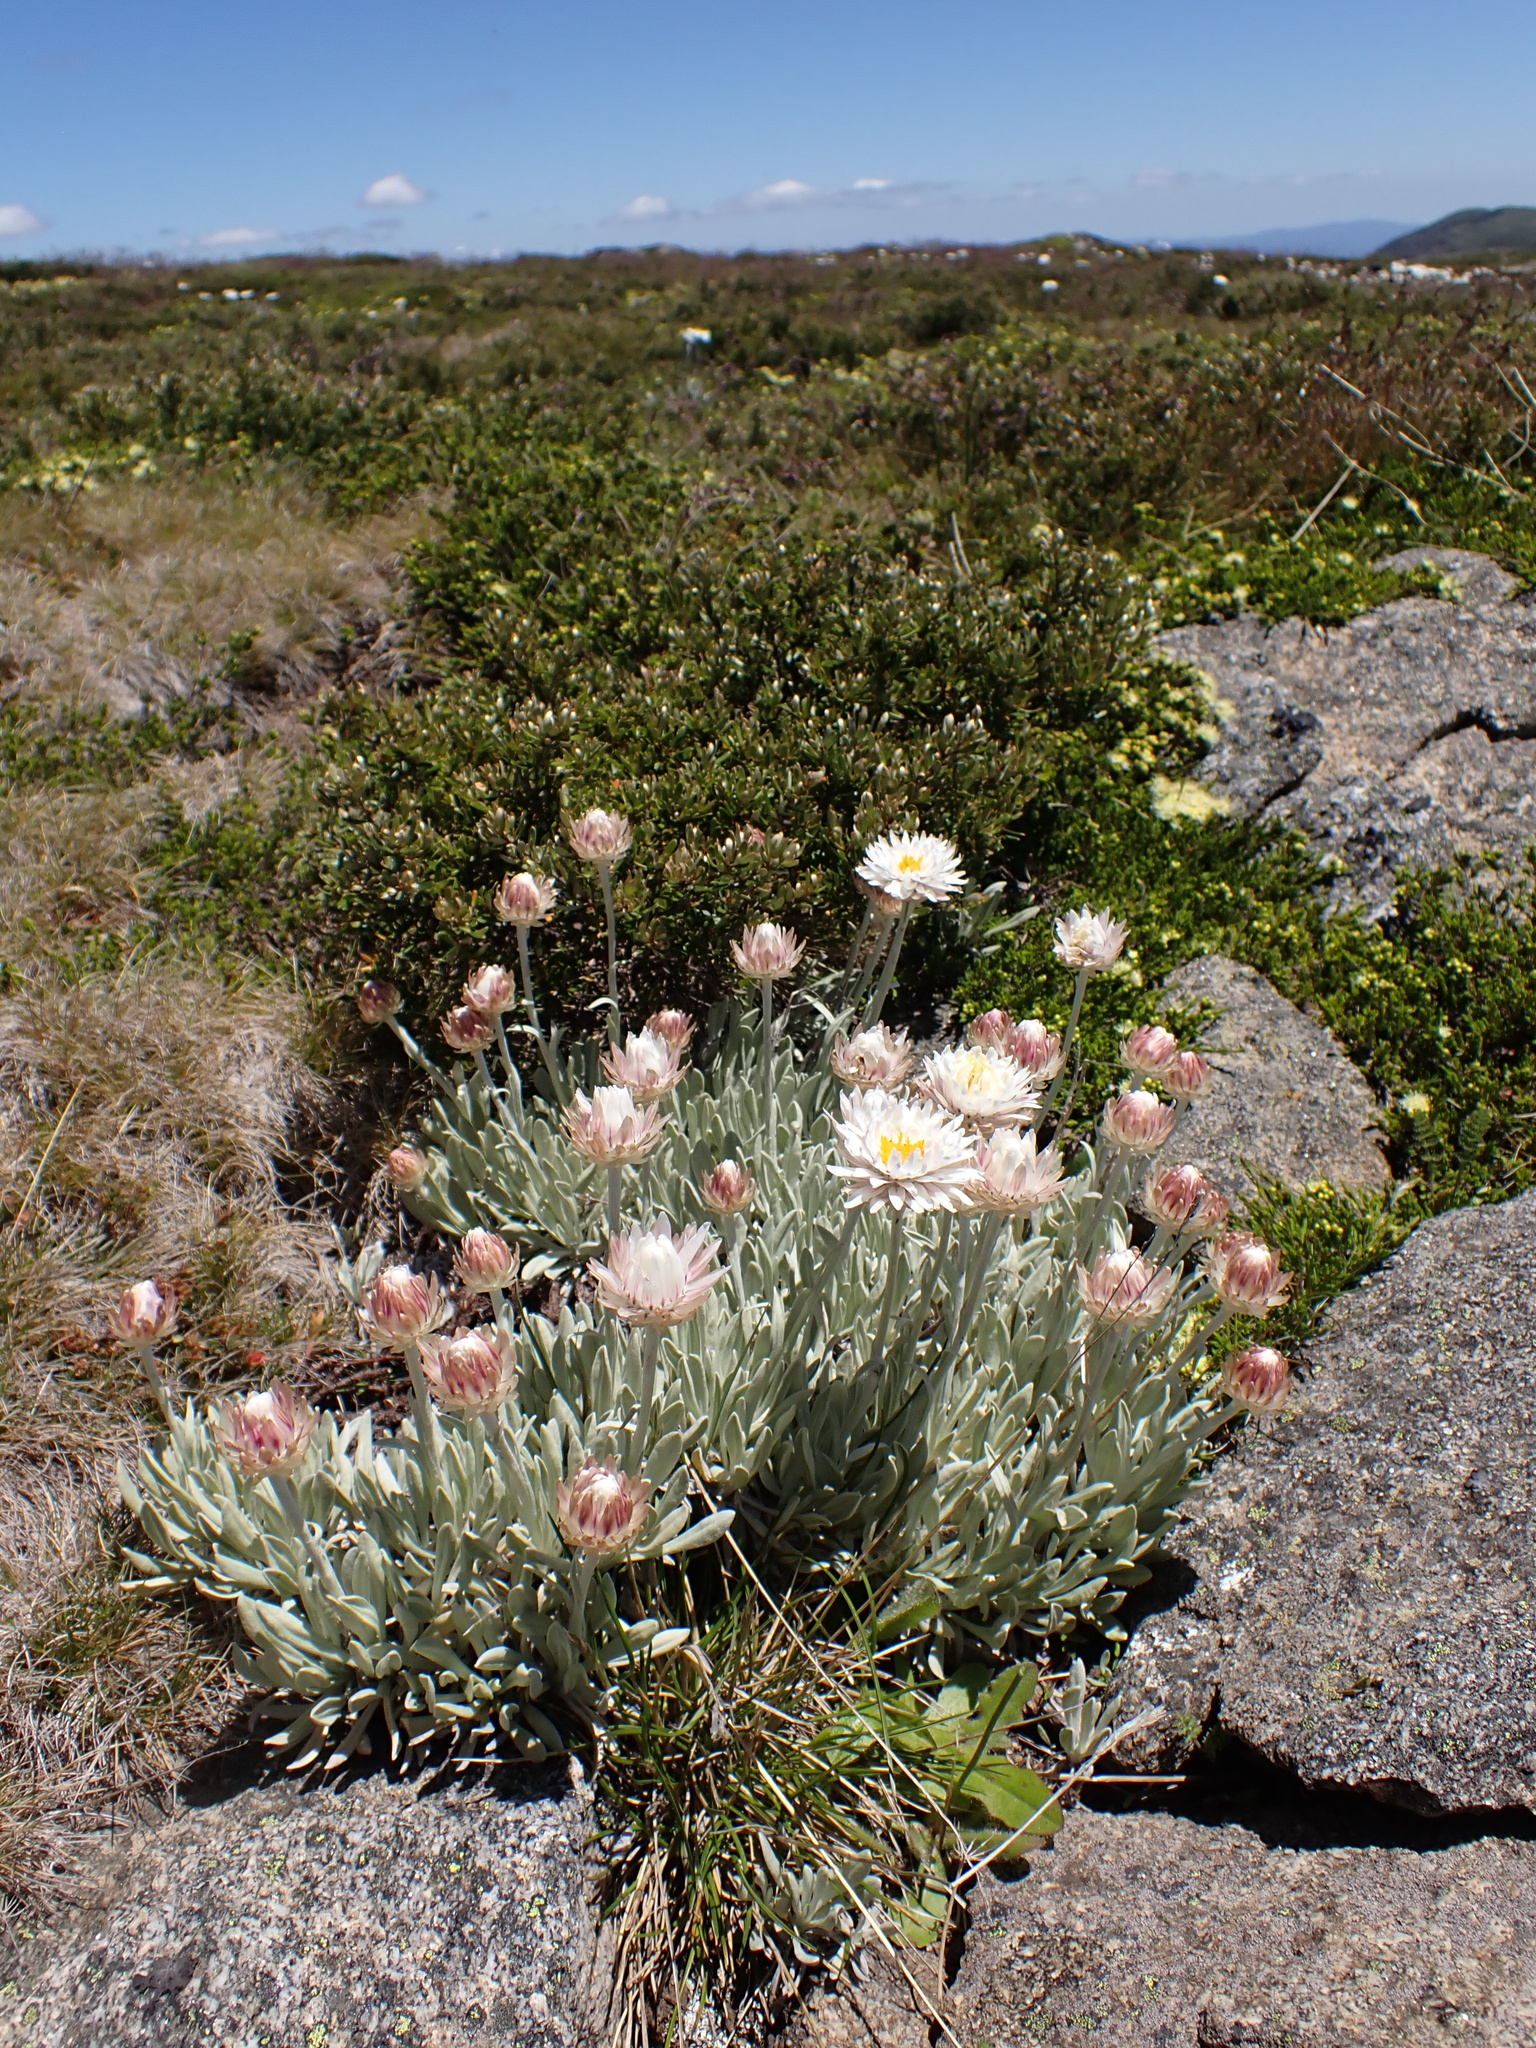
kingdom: Plantae
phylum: Tracheophyta
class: Magnoliopsida
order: Asterales
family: Asteraceae
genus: Leucochrysum
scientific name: Leucochrysum alpinum
